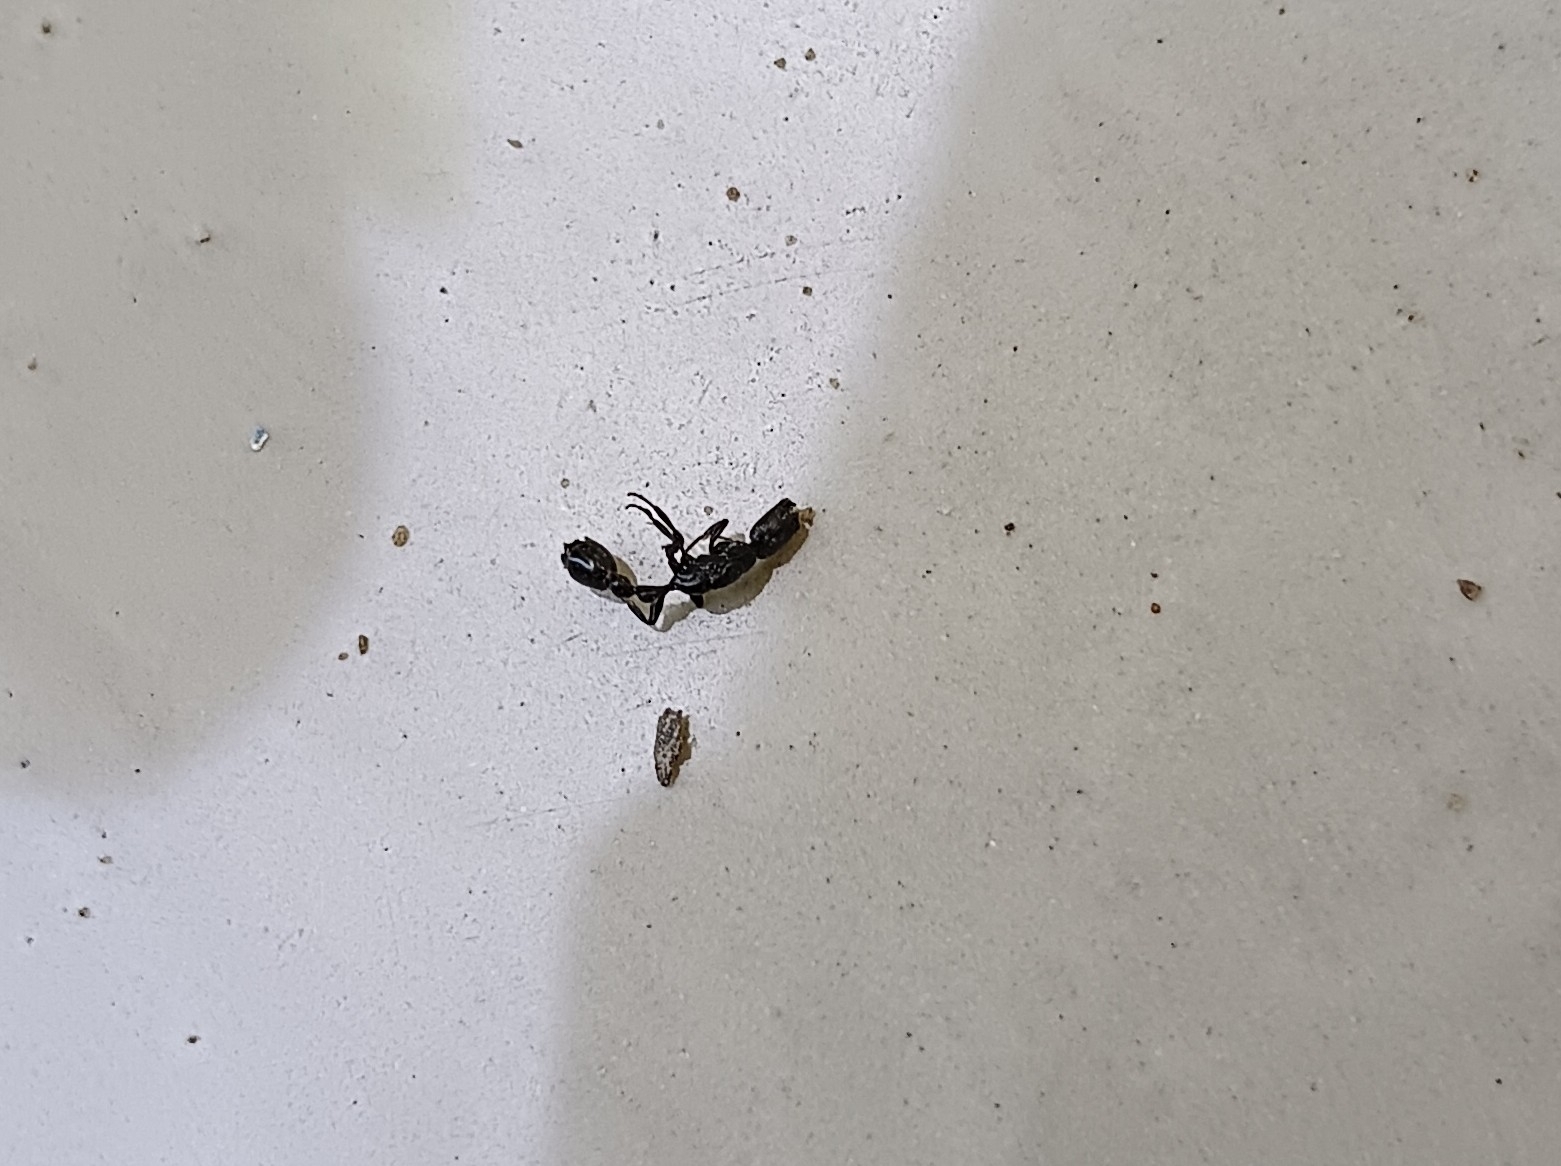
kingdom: Animalia
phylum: Arthropoda
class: Insecta
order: Hymenoptera
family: Formicidae
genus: Tetraponera
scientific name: Tetraponera nigra
